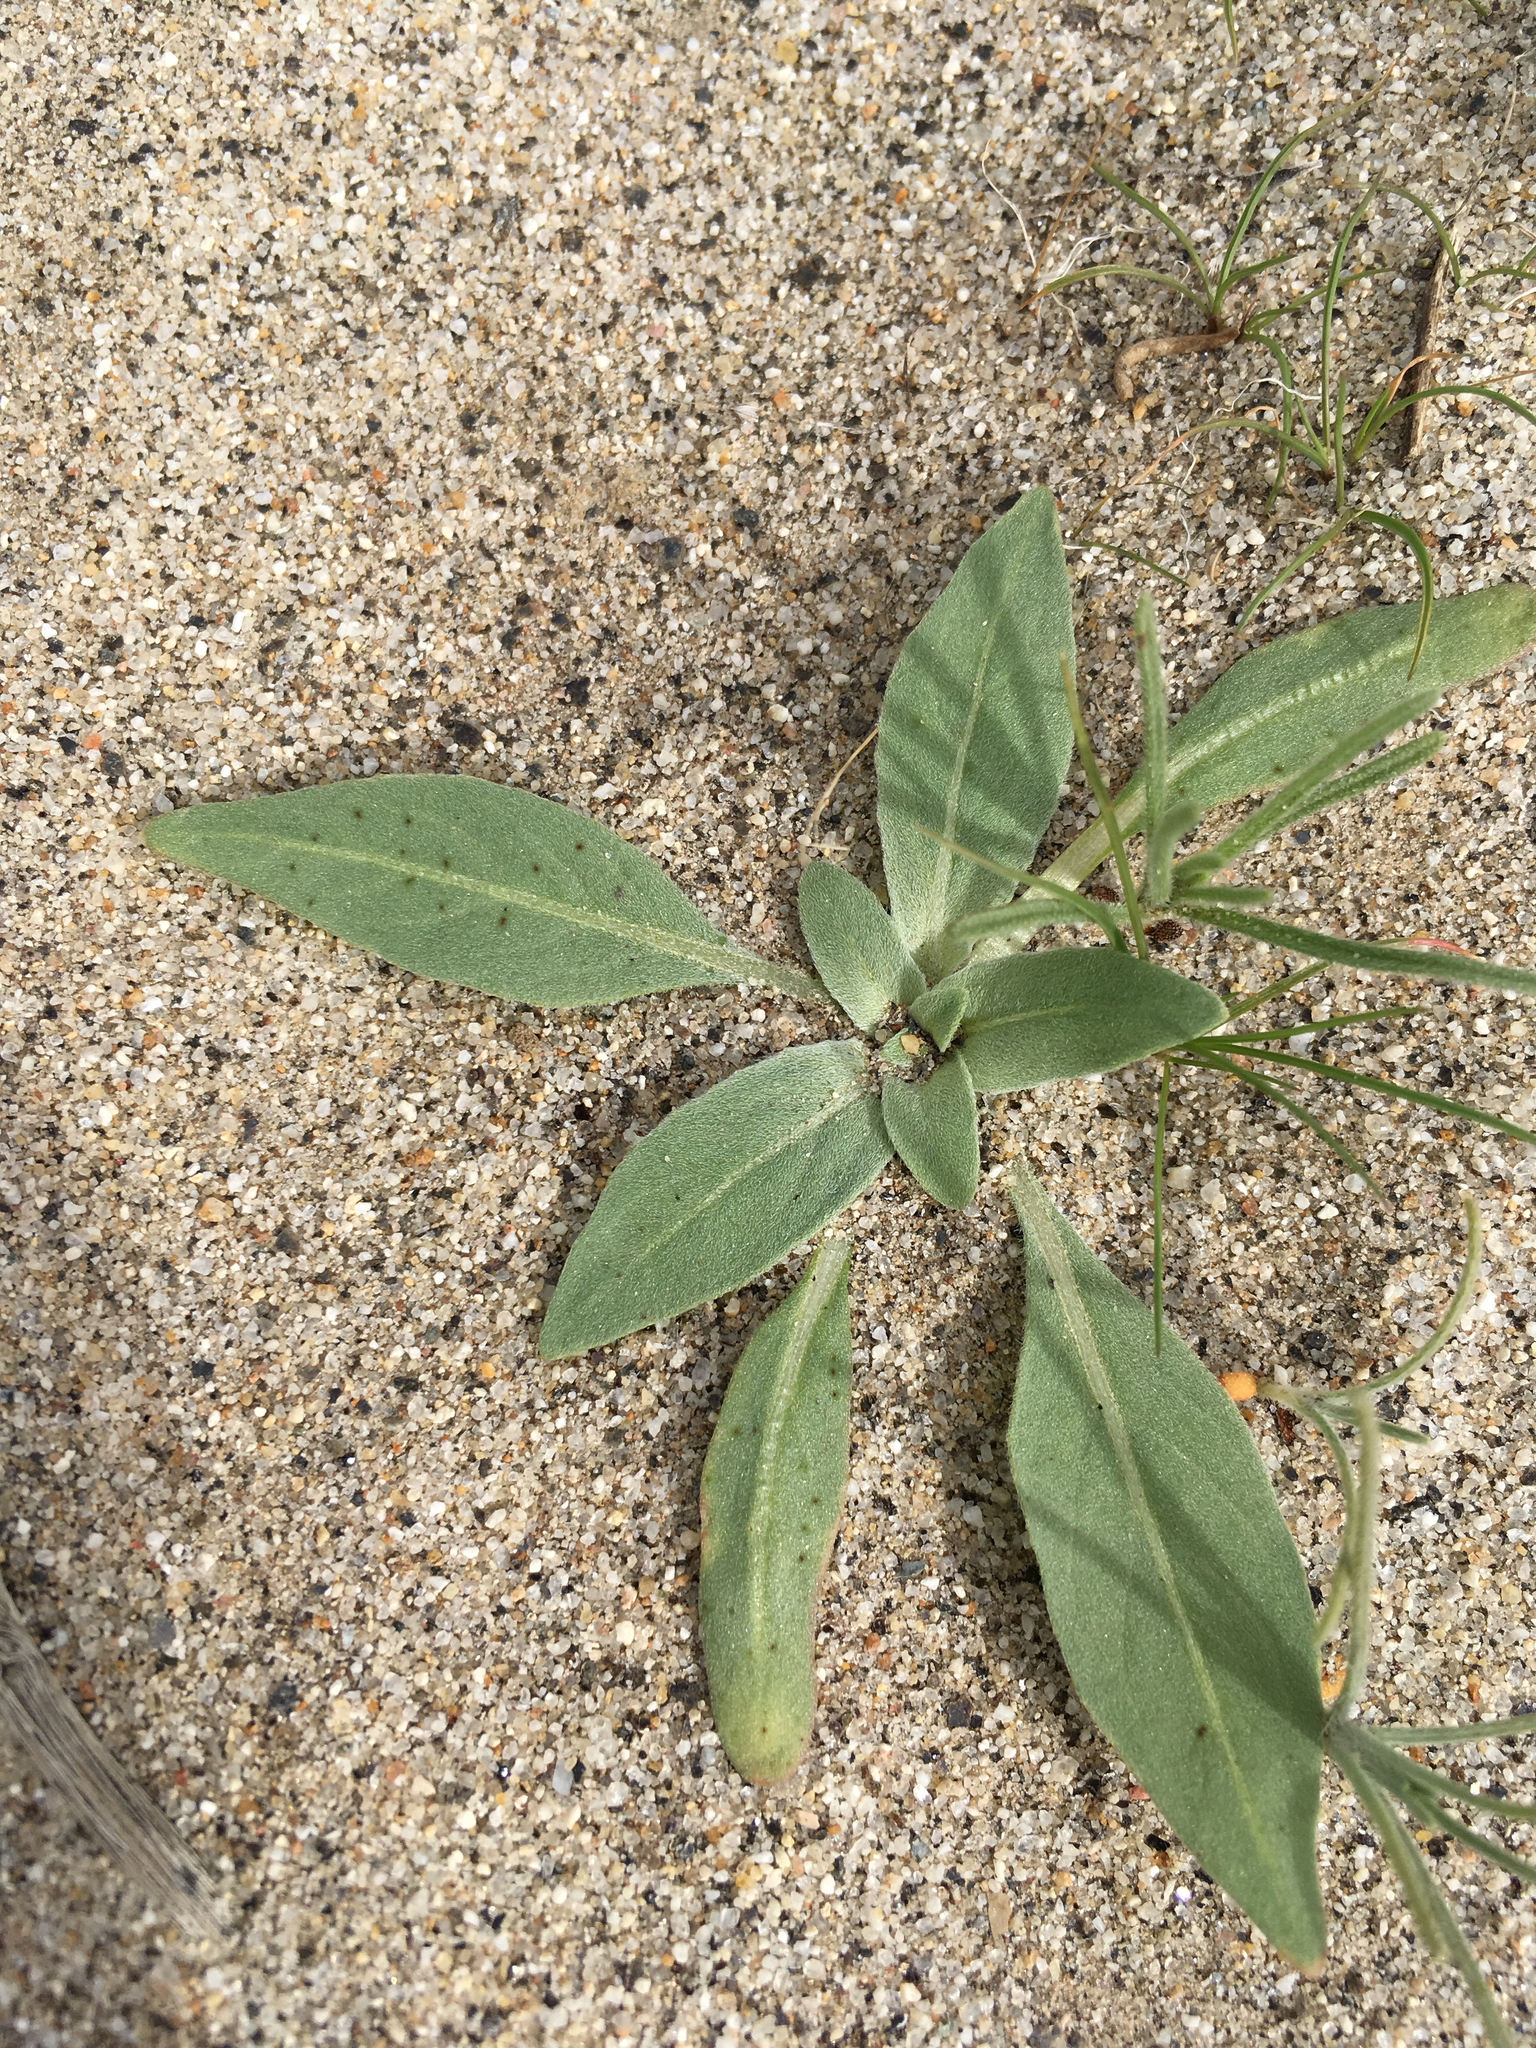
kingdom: Plantae
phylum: Tracheophyta
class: Magnoliopsida
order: Myrtales
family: Onagraceae
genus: Oenothera
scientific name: Oenothera deltoides
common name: Basket evening-primrose
